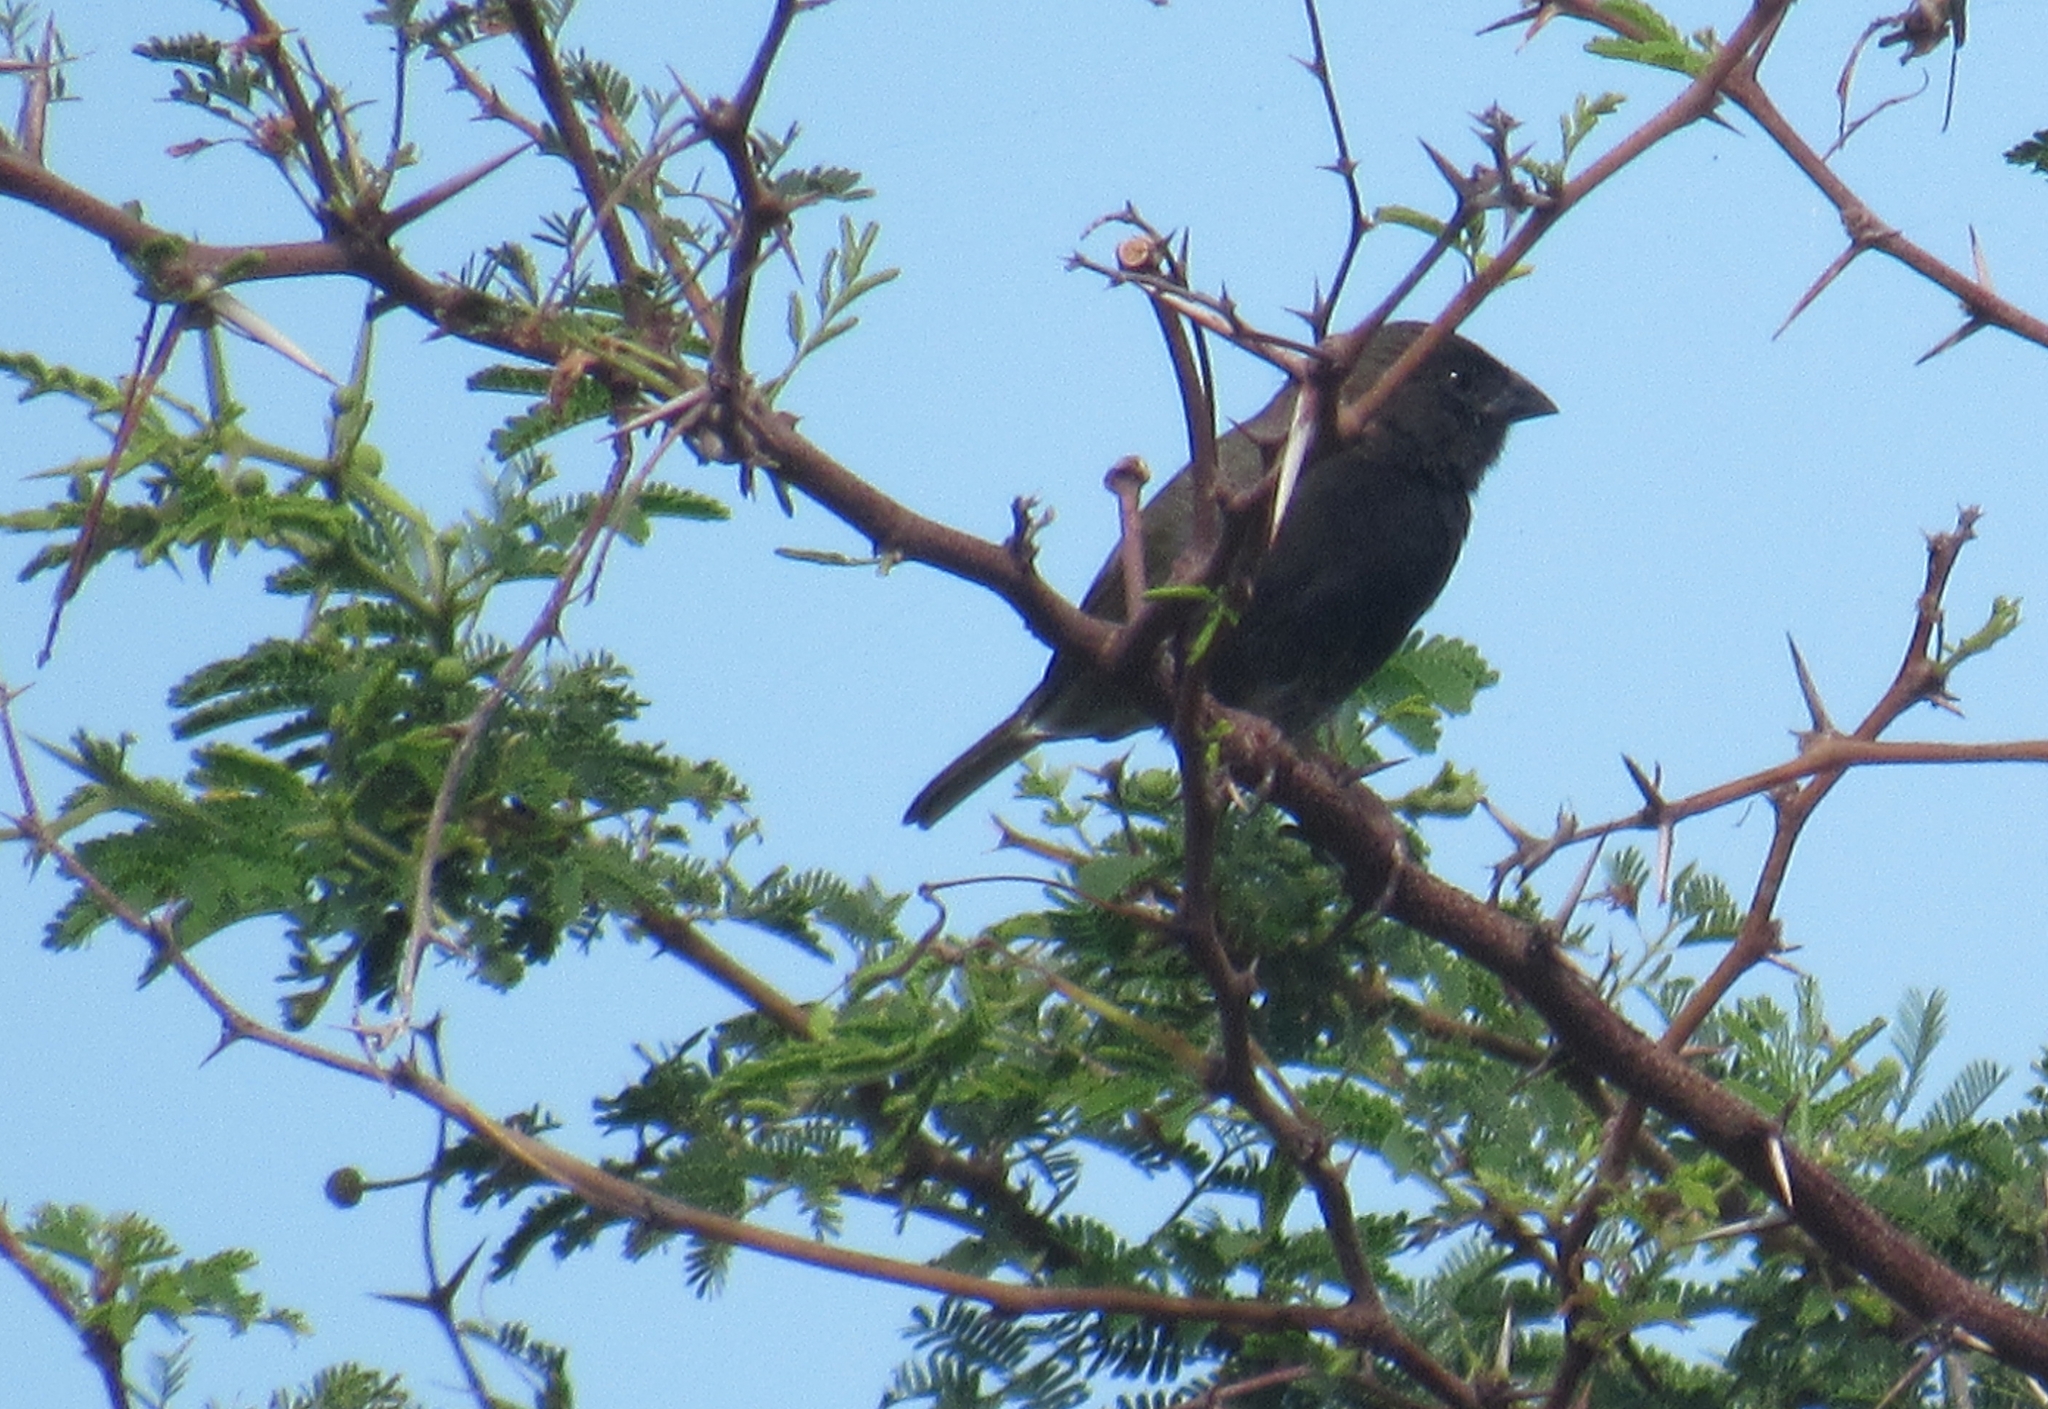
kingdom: Animalia
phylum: Chordata
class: Aves
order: Passeriformes
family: Thraupidae
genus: Melanospiza
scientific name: Melanospiza bicolor
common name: Black-faced grassquit
